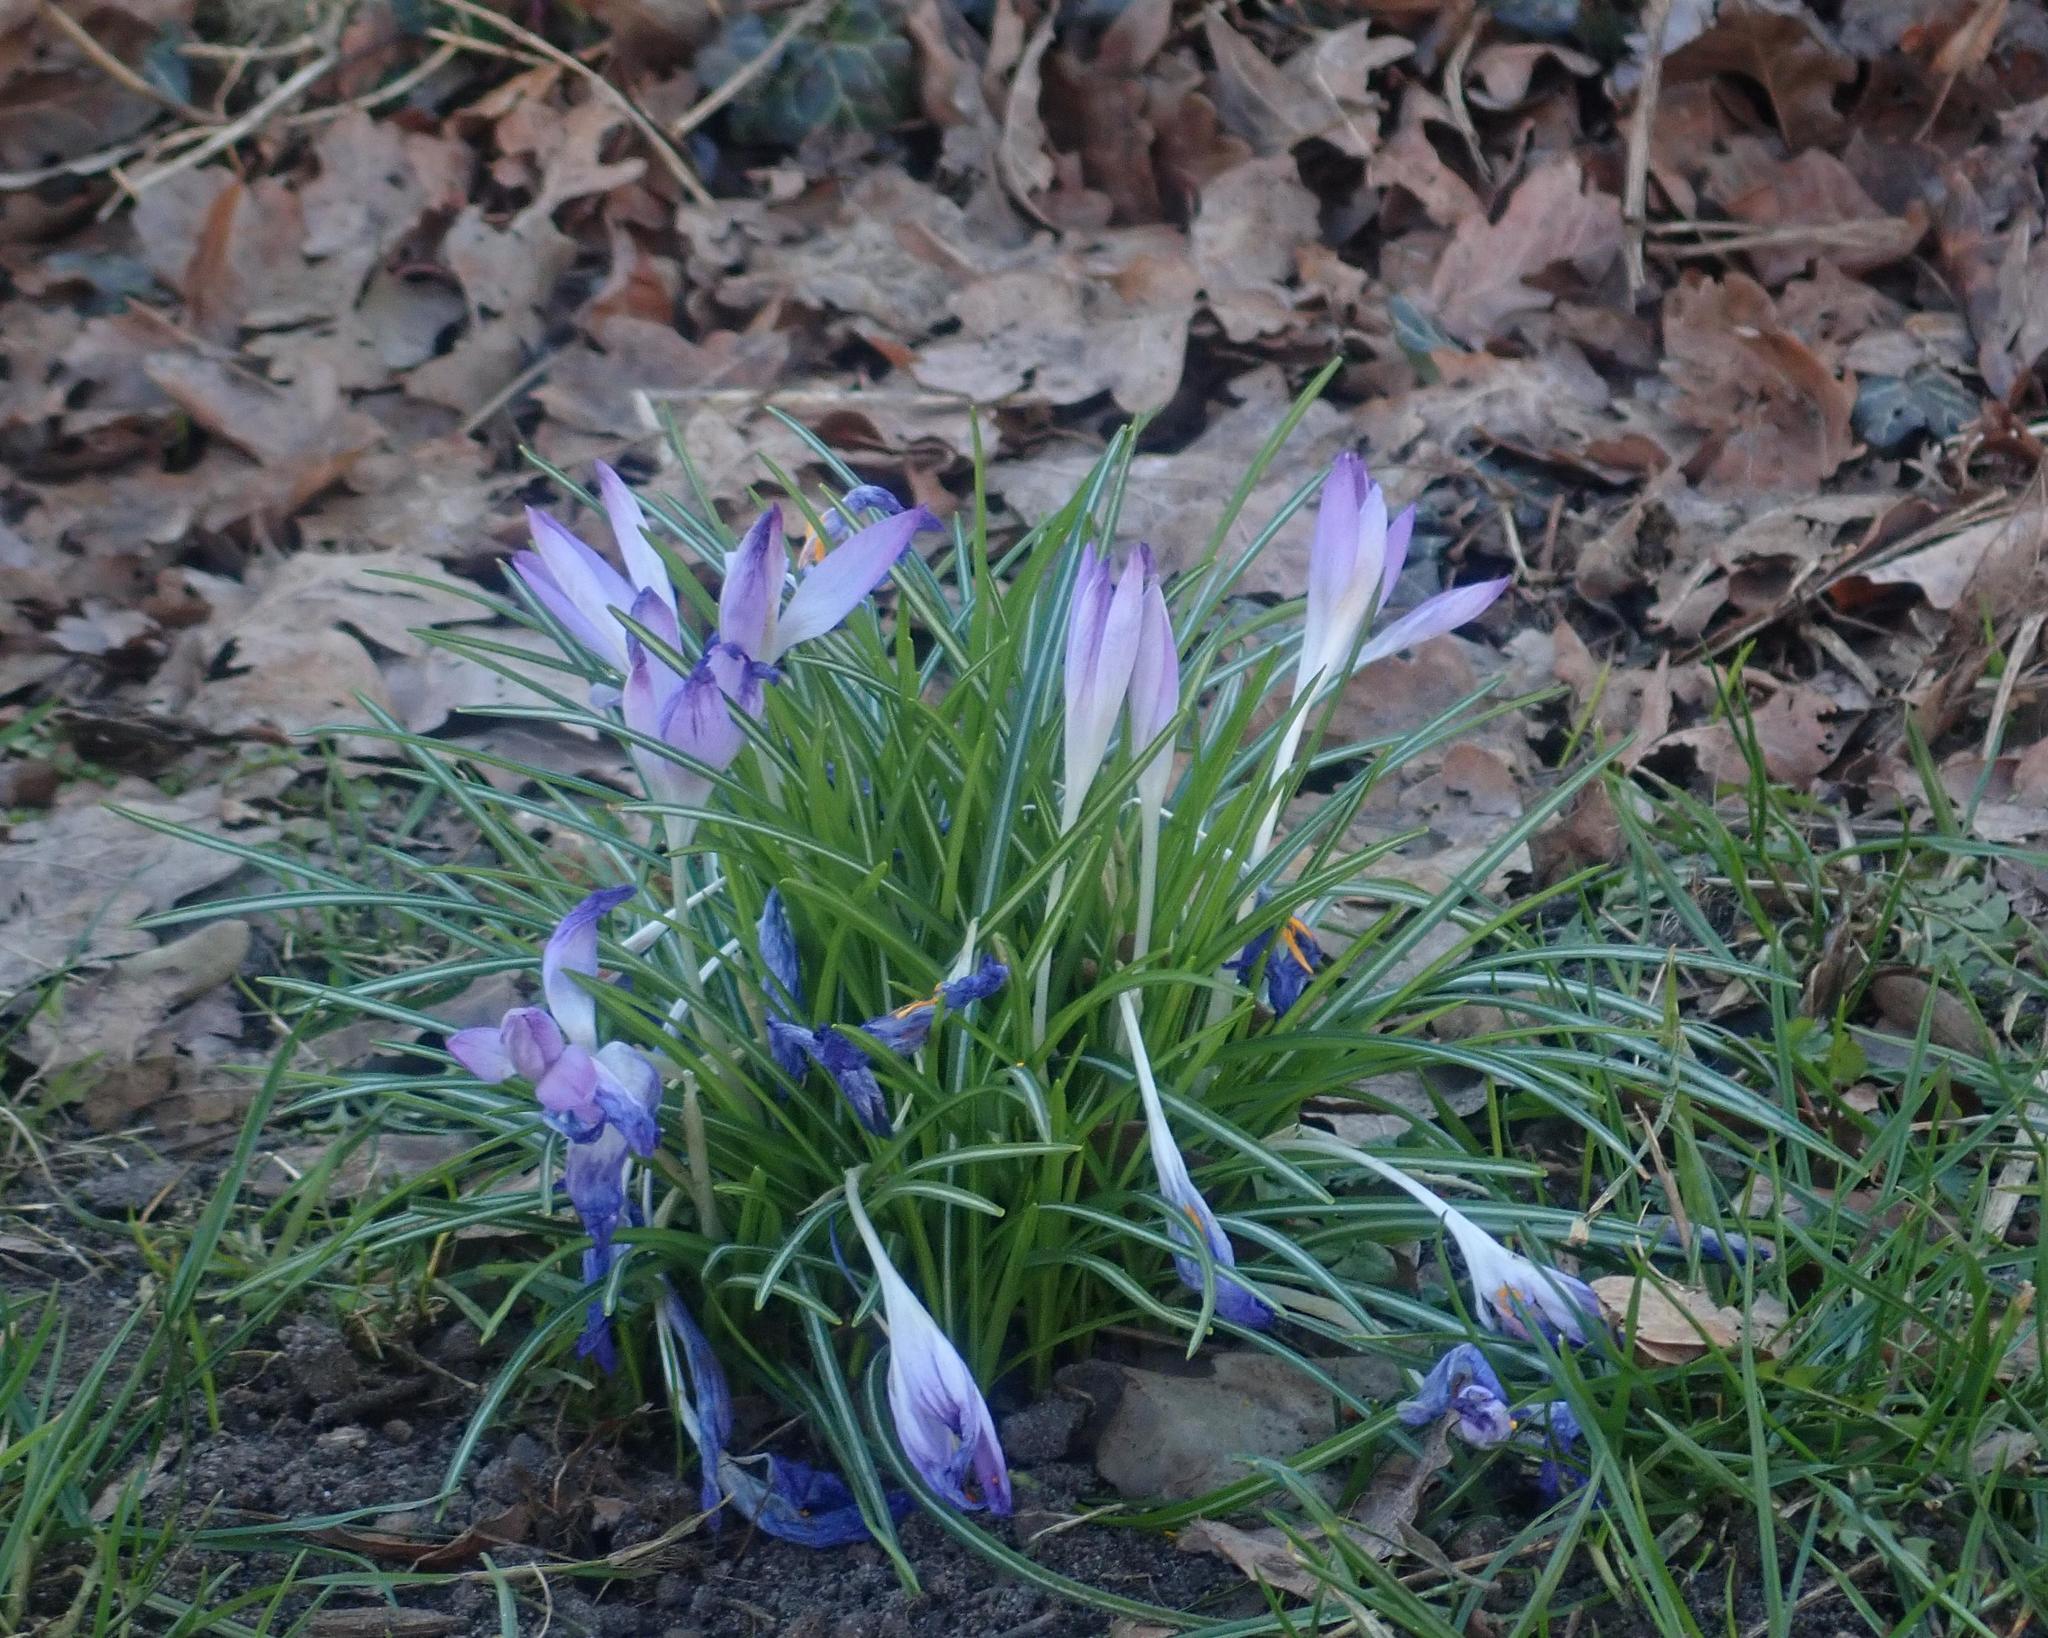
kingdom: Plantae
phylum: Tracheophyta
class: Liliopsida
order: Asparagales
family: Iridaceae
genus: Crocus
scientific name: Crocus tommasinianus
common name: Early crocus
